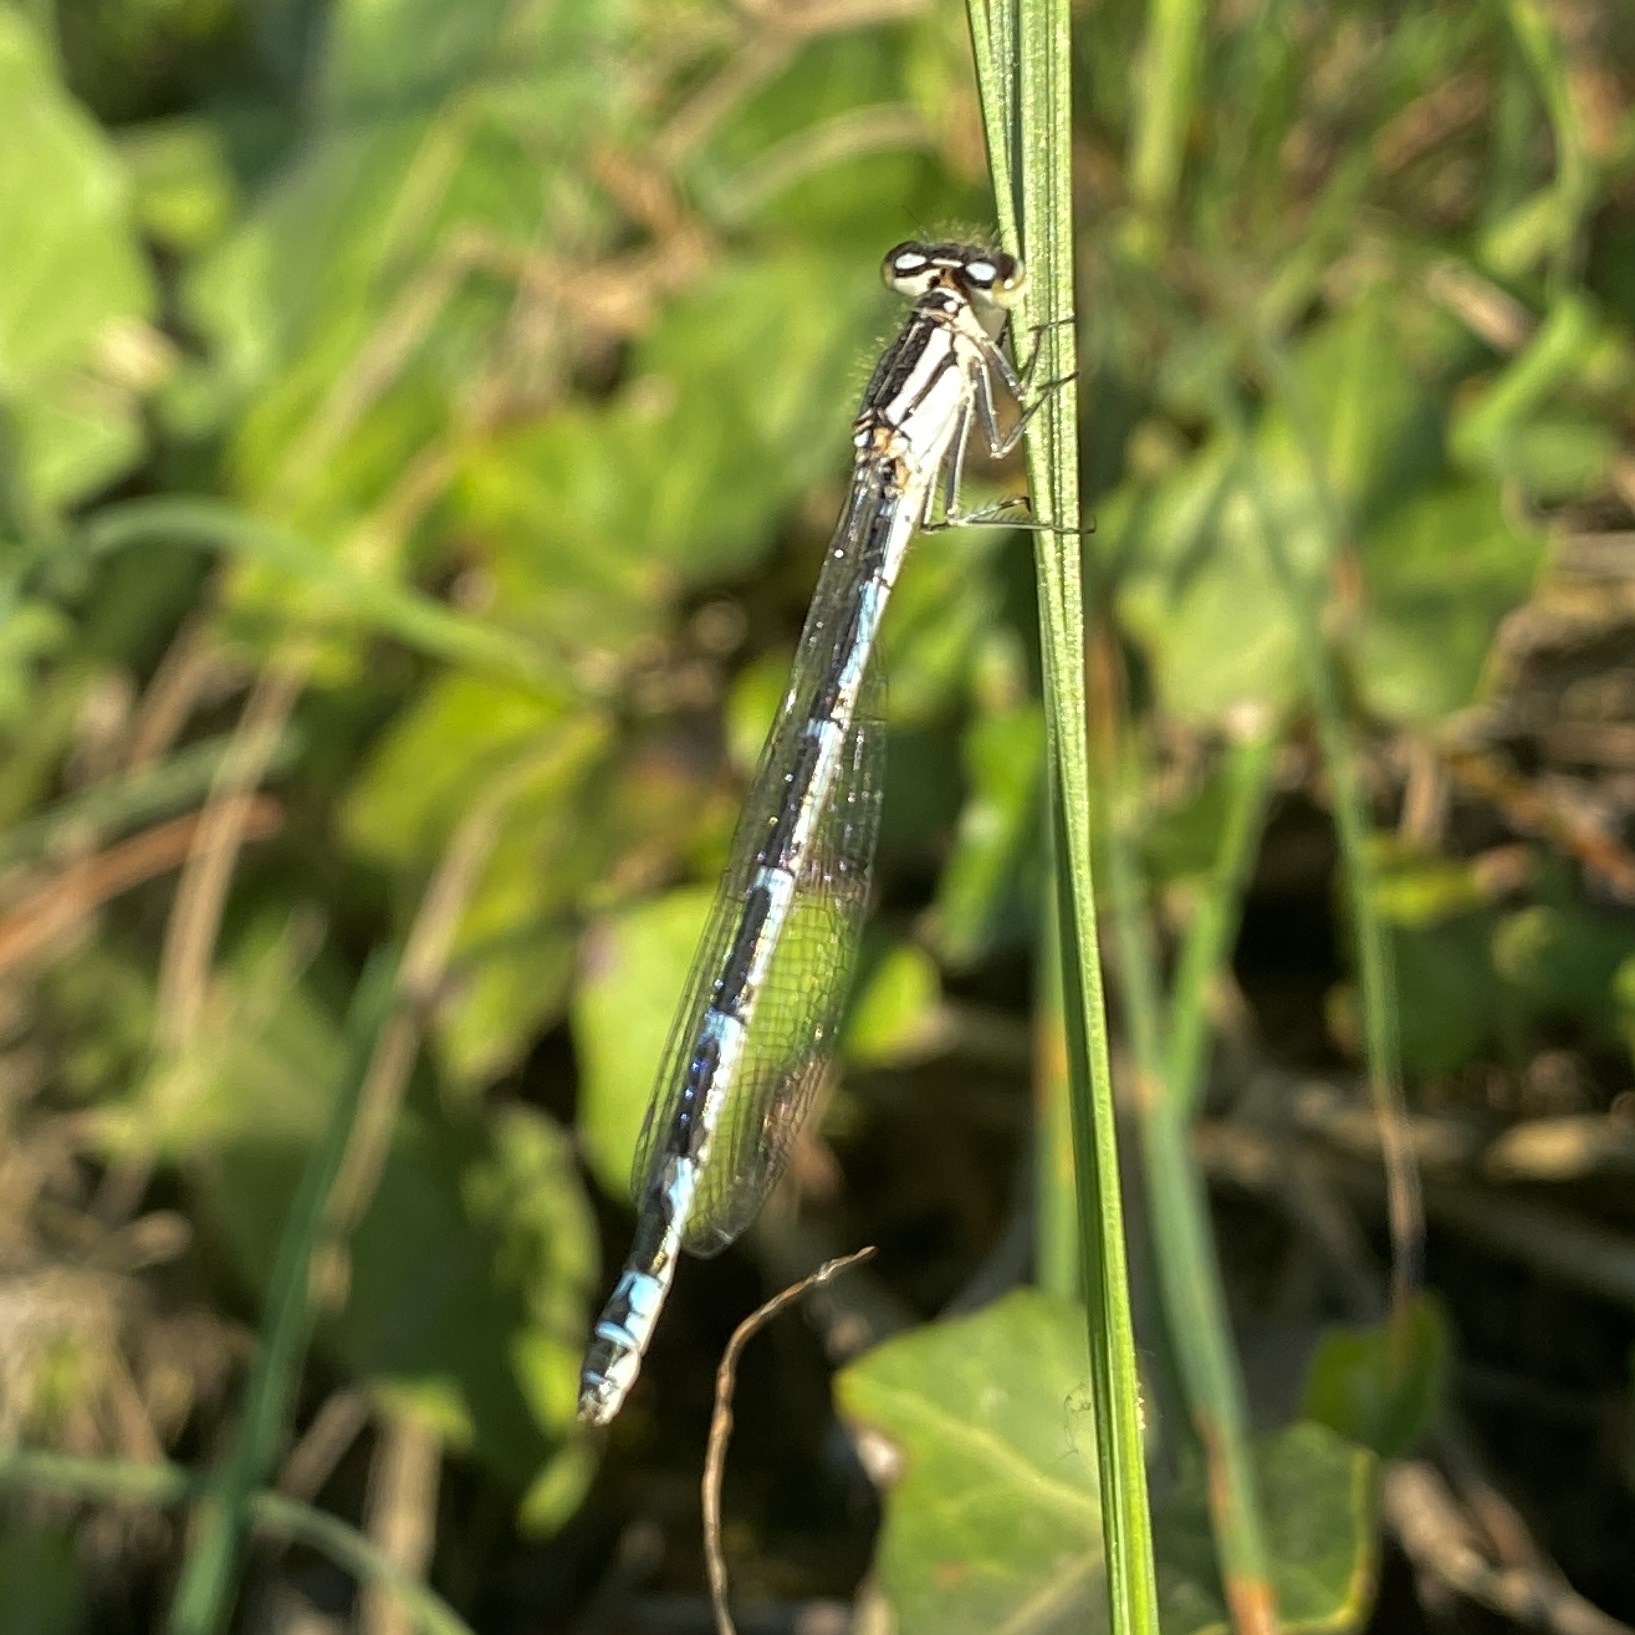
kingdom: Animalia
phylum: Arthropoda
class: Insecta
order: Odonata
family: Coenagrionidae
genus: Enallagma
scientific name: Enallagma cyathigerum
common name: Common blue damselfly
